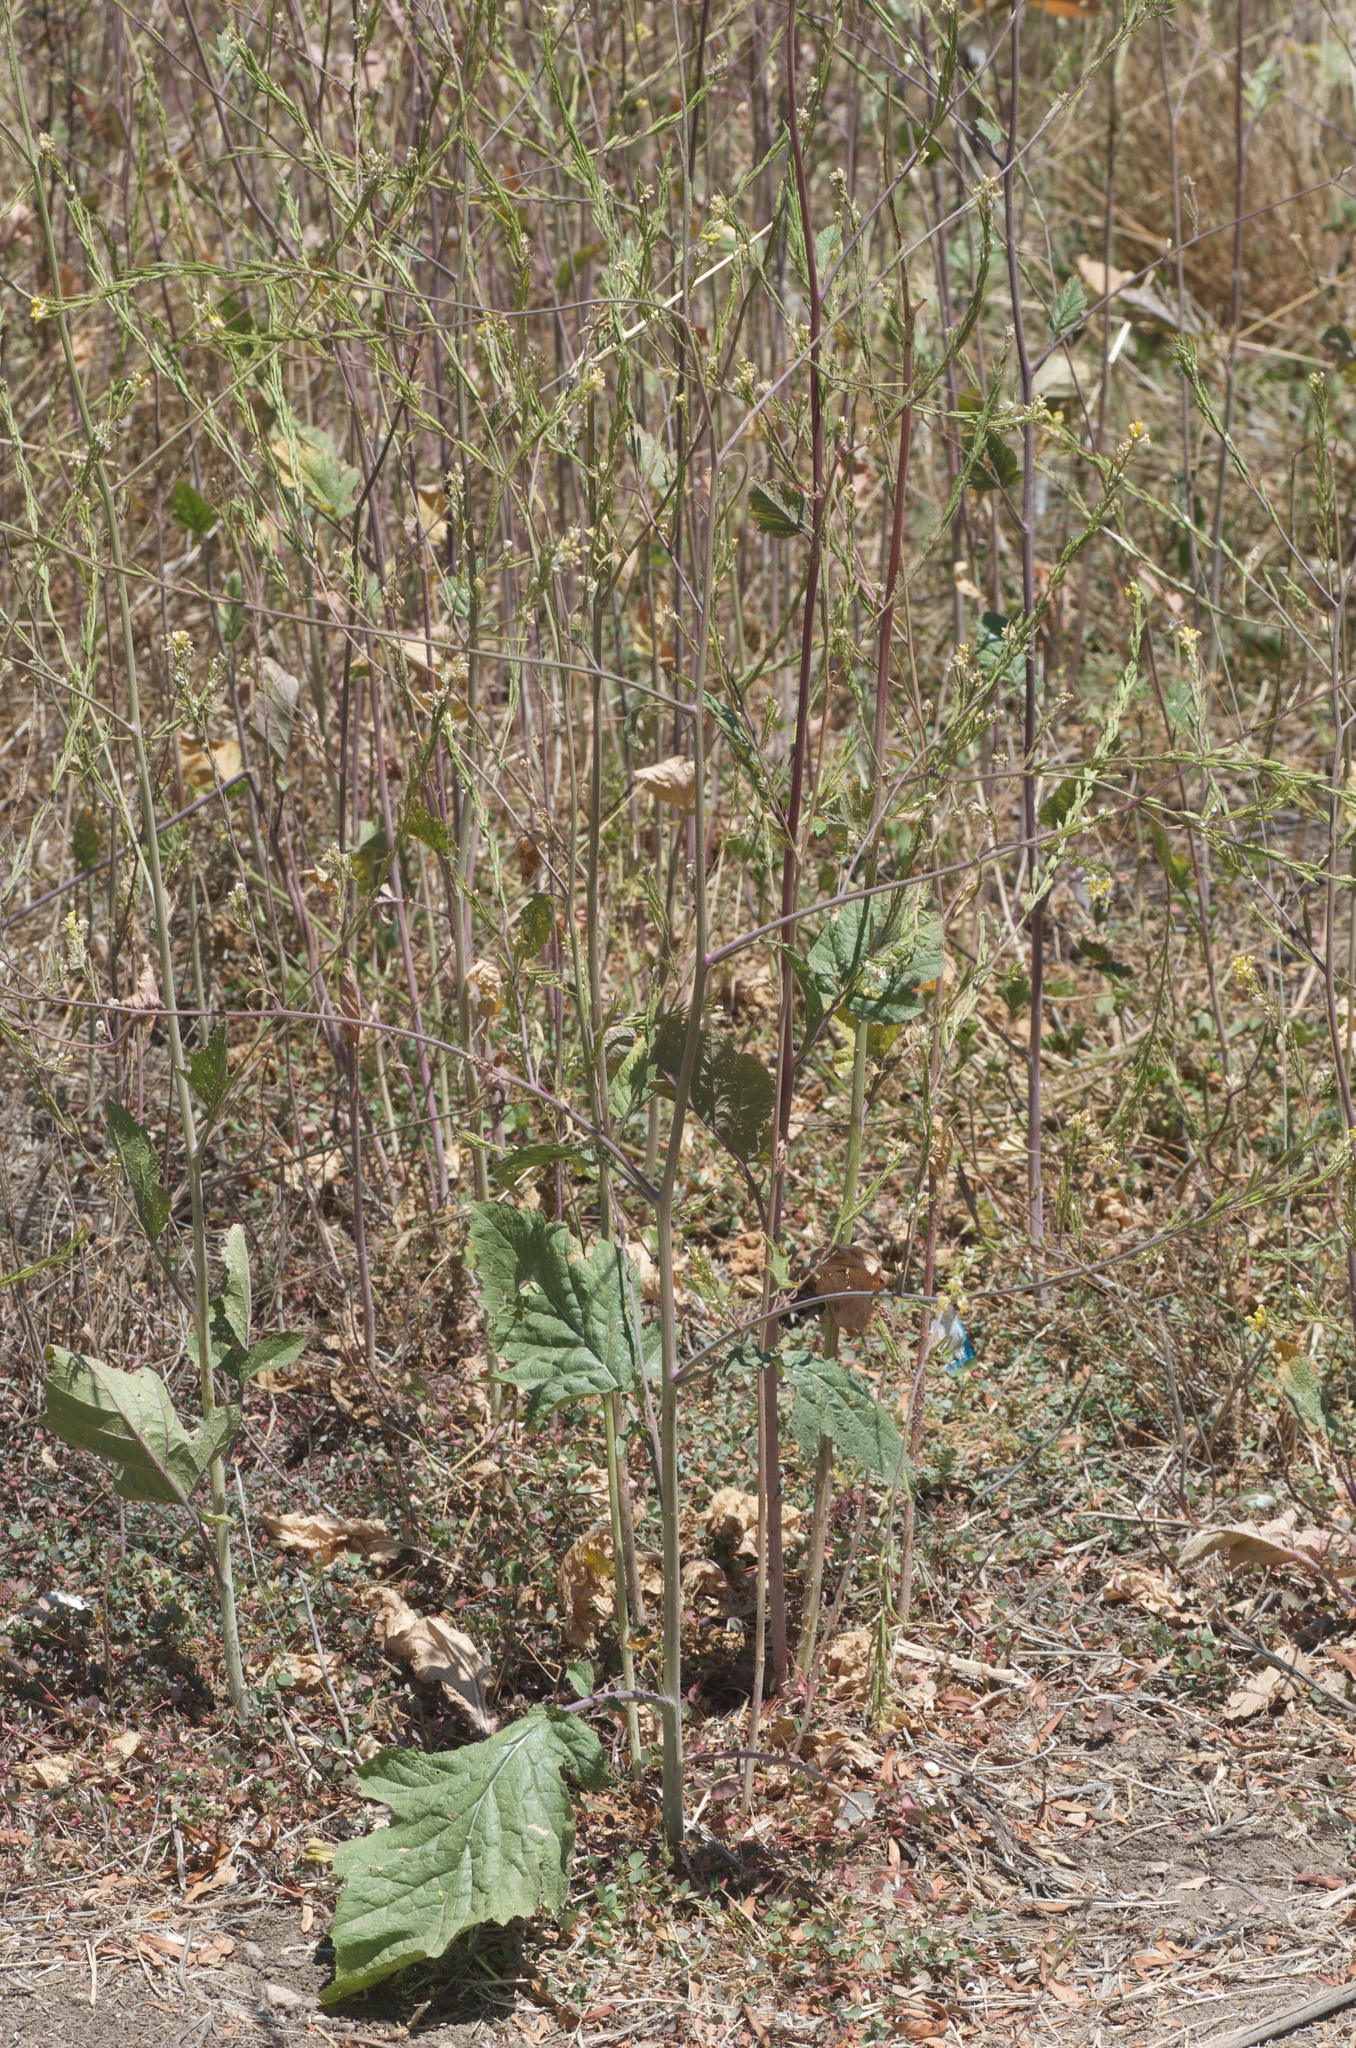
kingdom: Plantae
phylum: Tracheophyta
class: Magnoliopsida
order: Brassicales
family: Brassicaceae
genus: Brassica
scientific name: Brassica nigra
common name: Black mustard
